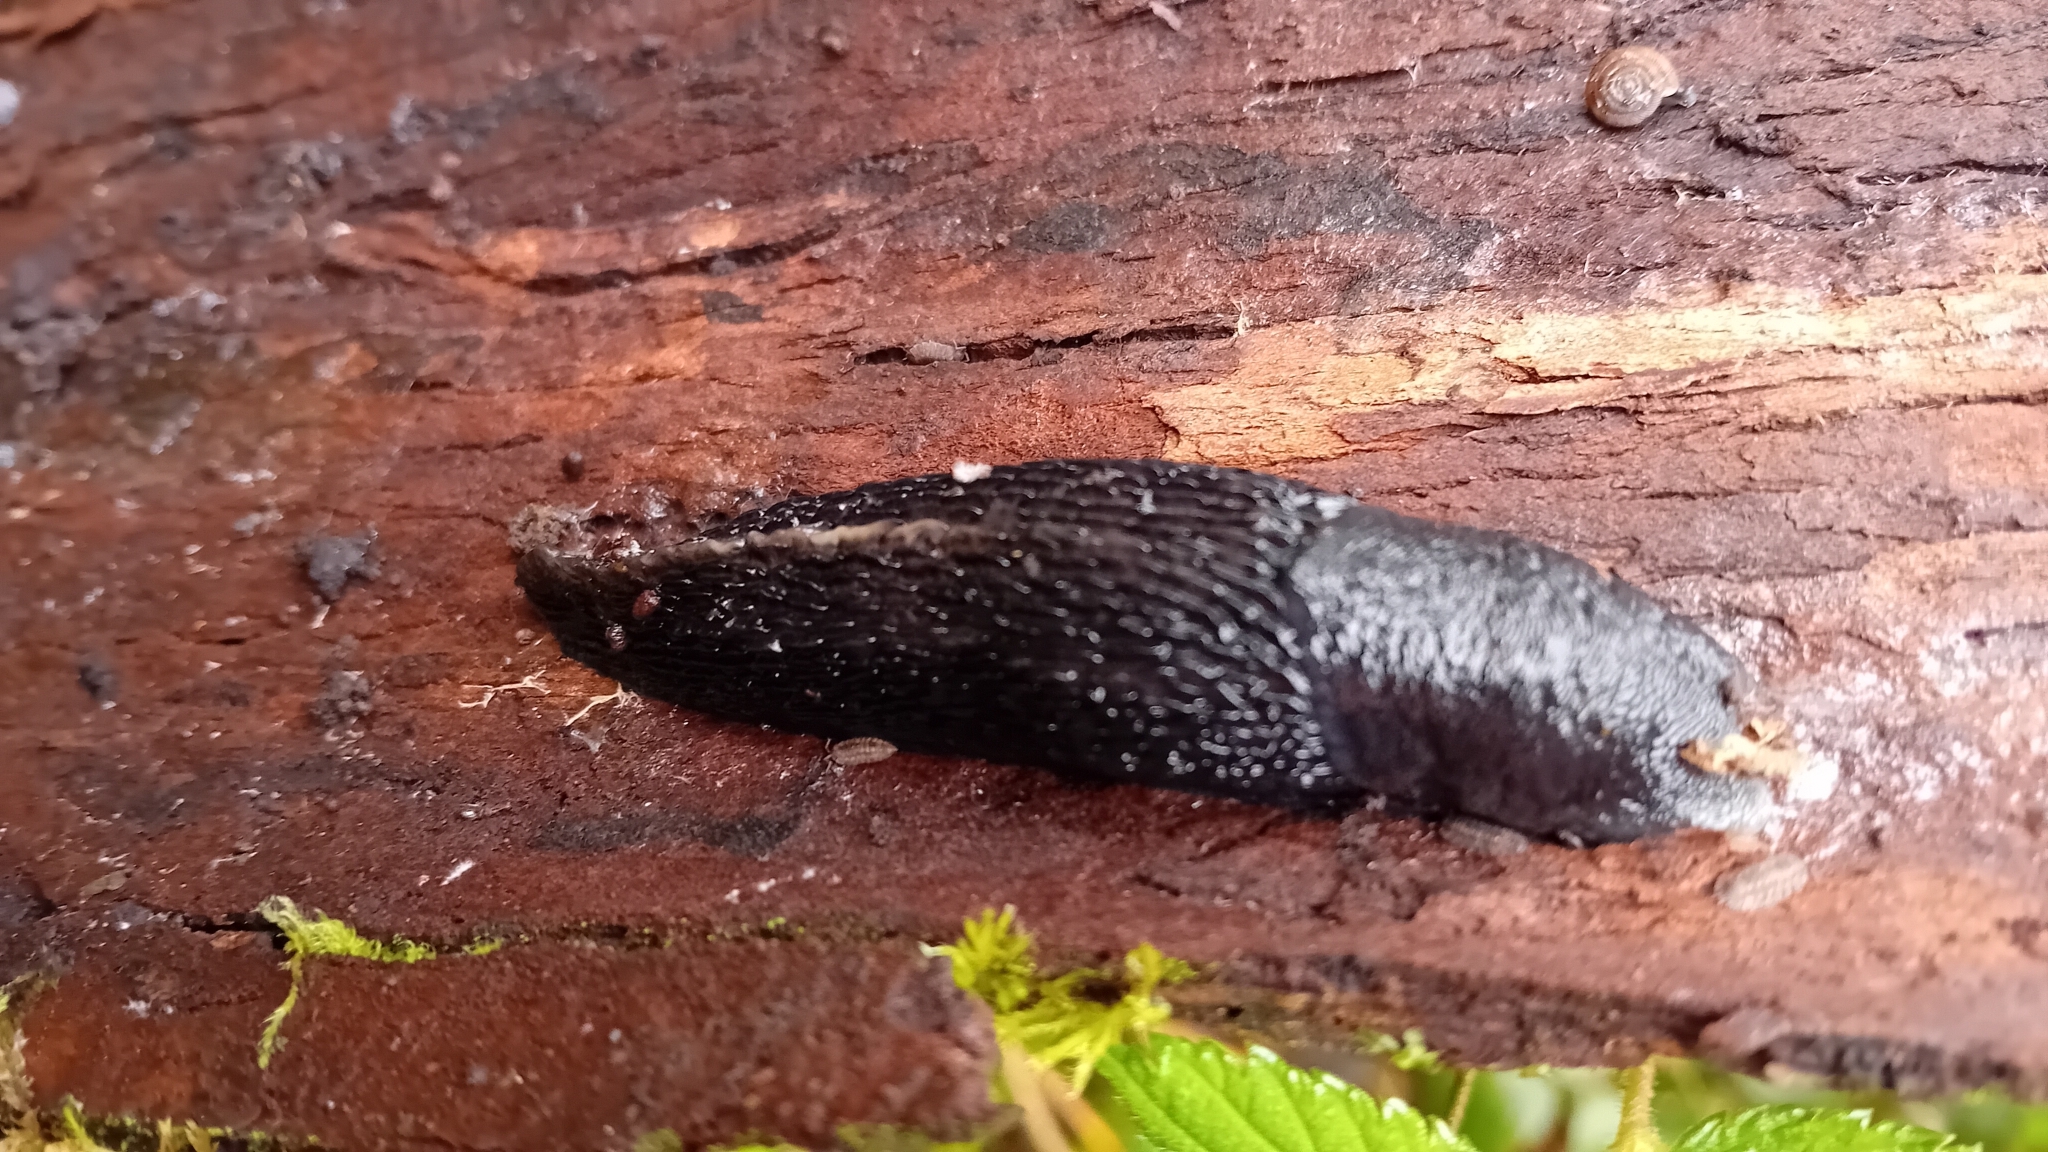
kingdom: Animalia
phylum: Mollusca
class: Gastropoda
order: Stylommatophora
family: Limacidae
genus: Limax
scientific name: Limax cinereoniger
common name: Ash-black slug
